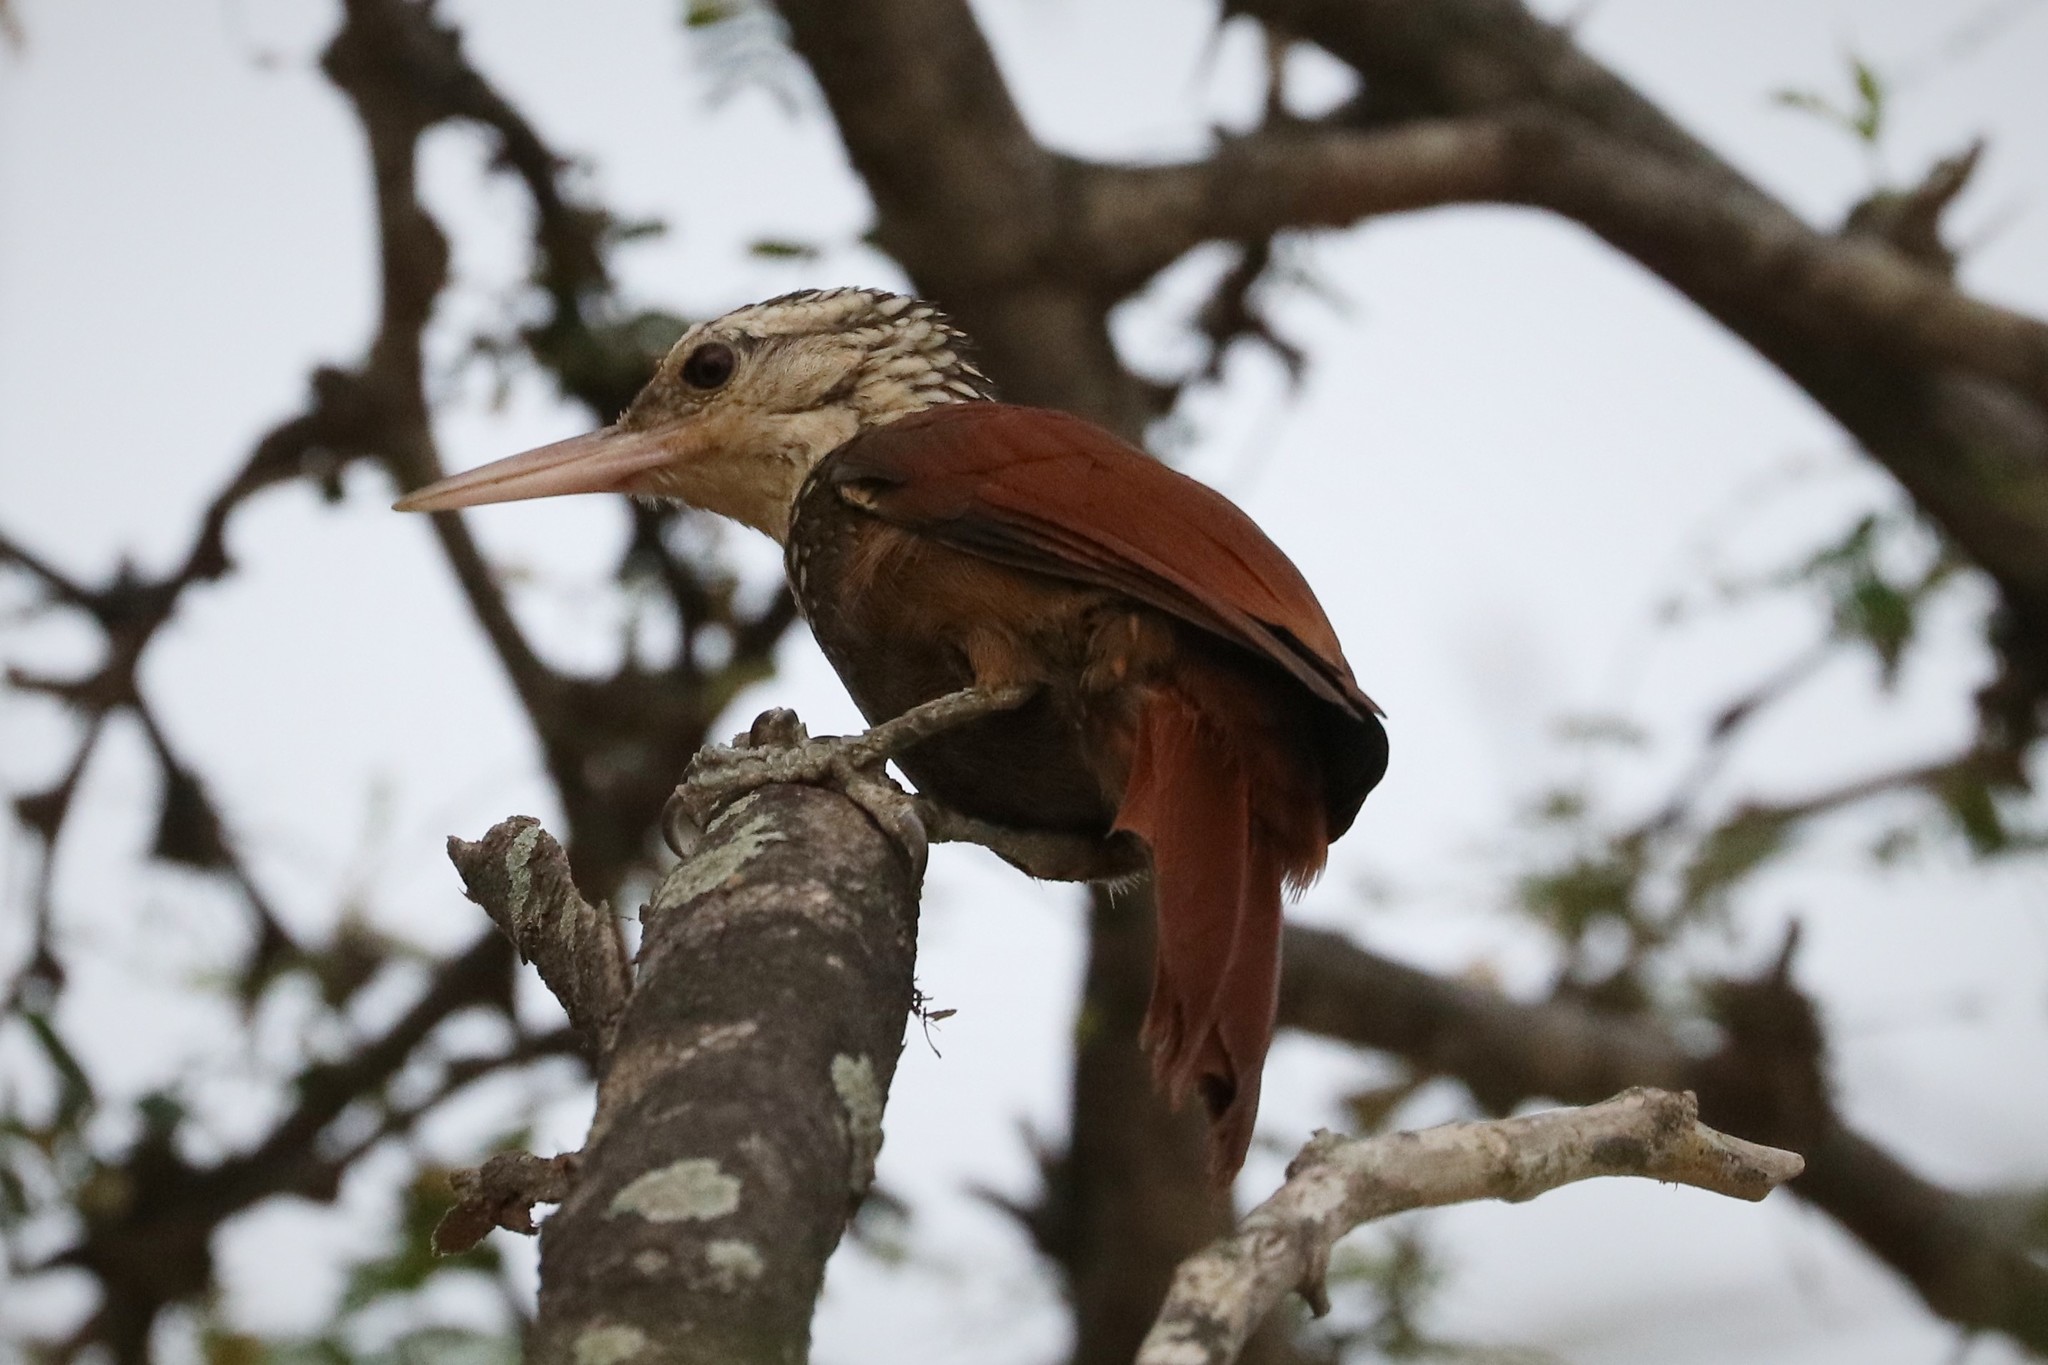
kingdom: Animalia
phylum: Chordata
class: Aves
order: Passeriformes
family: Furnariidae
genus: Xiphorhynchus
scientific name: Xiphorhynchus picus
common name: Straight-billed woodcreeper
